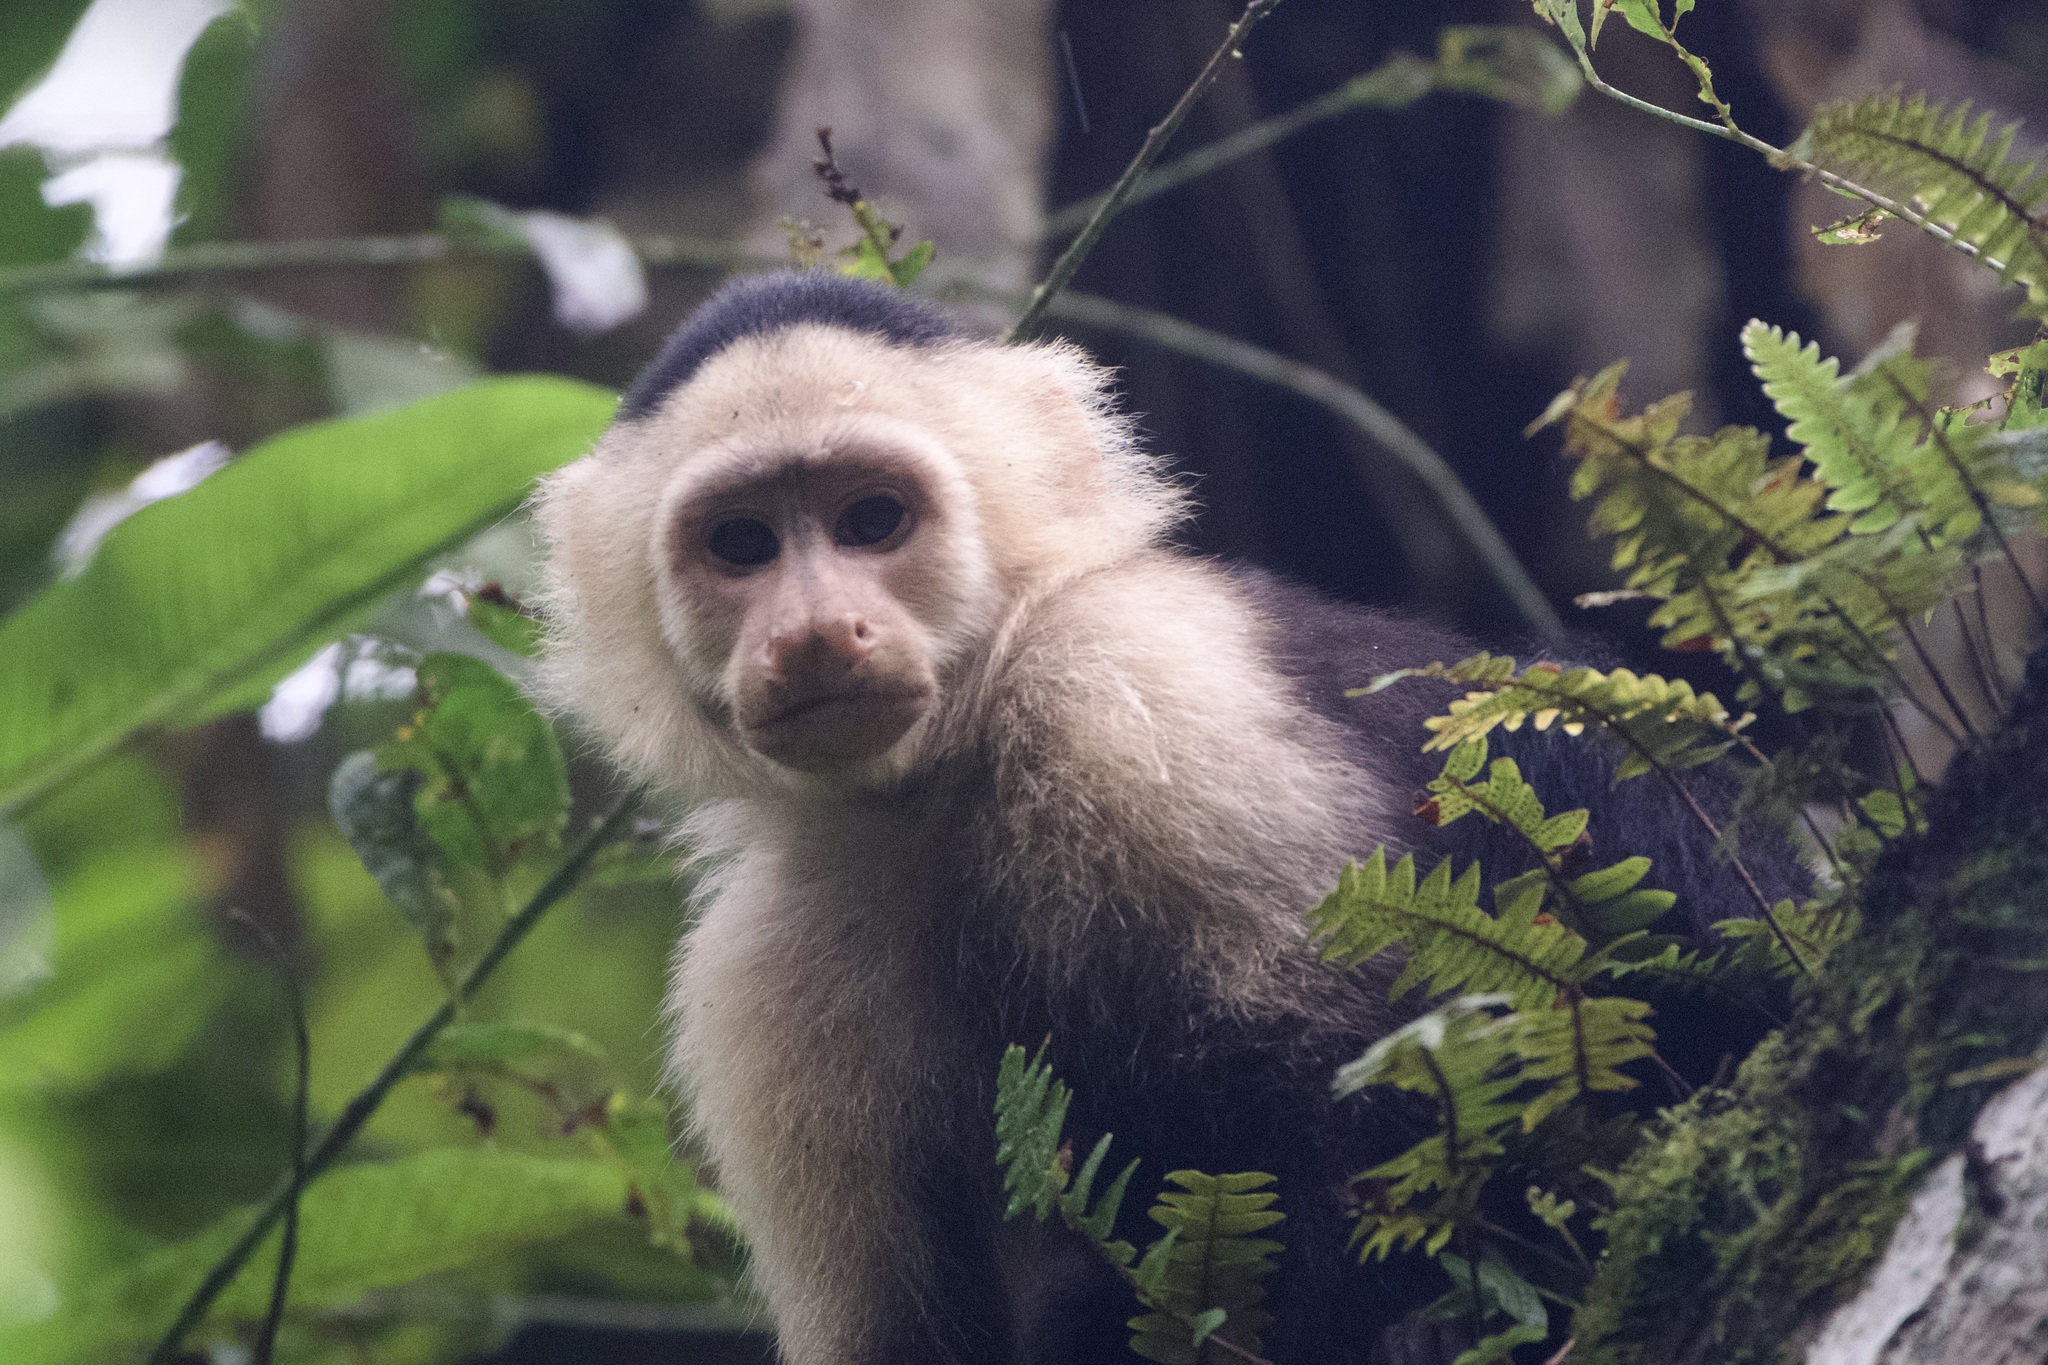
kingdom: Animalia
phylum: Chordata
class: Mammalia
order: Primates
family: Cebidae
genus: Cebus
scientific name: Cebus capucinus
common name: White-headed capuchin
